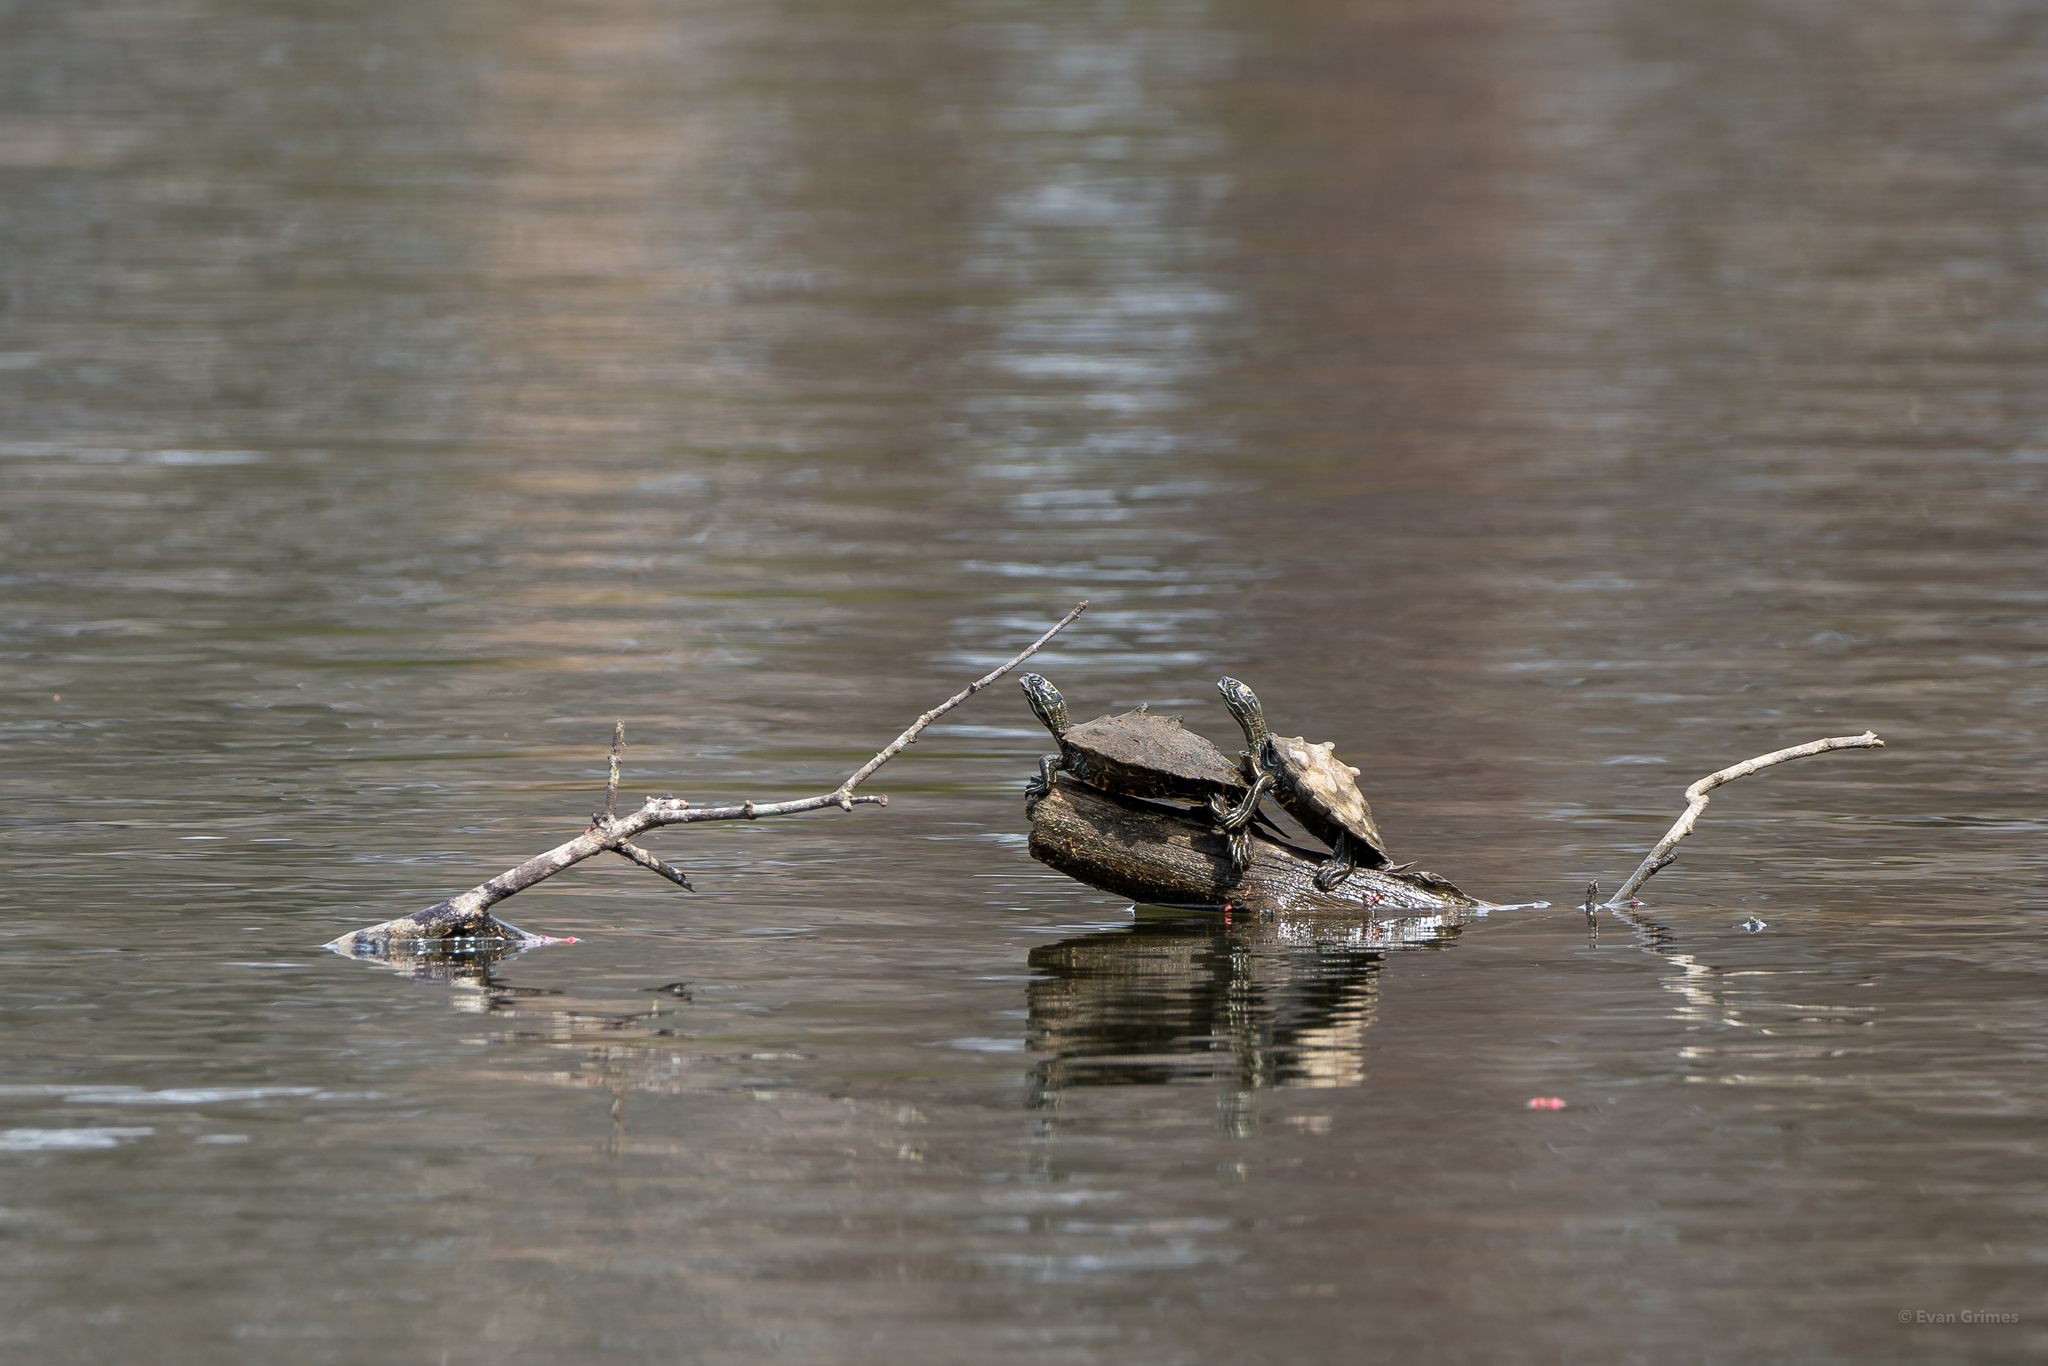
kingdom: Animalia
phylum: Chordata
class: Testudines
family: Emydidae
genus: Graptemys
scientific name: Graptemys nigrinoda
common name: Black-knobbed map turtle
